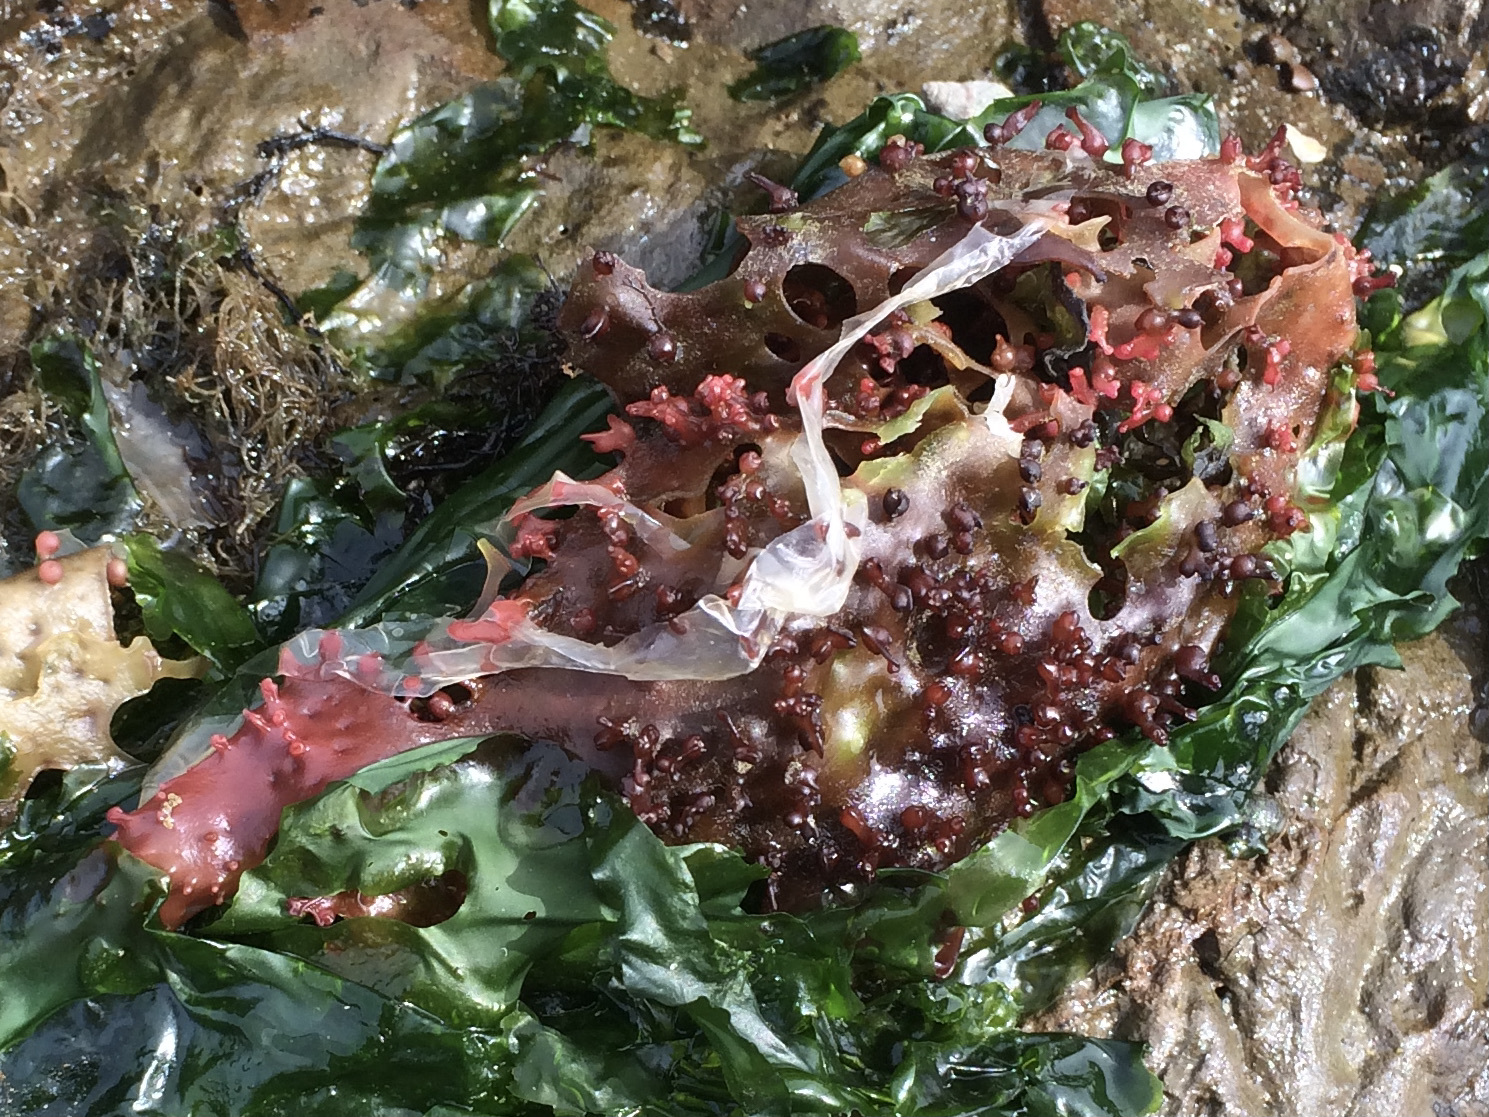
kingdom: Plantae
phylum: Rhodophyta
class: Florideophyceae
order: Gigartinales
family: Gigartinaceae
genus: Chondracanthus
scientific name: Chondracanthus exasperatus
